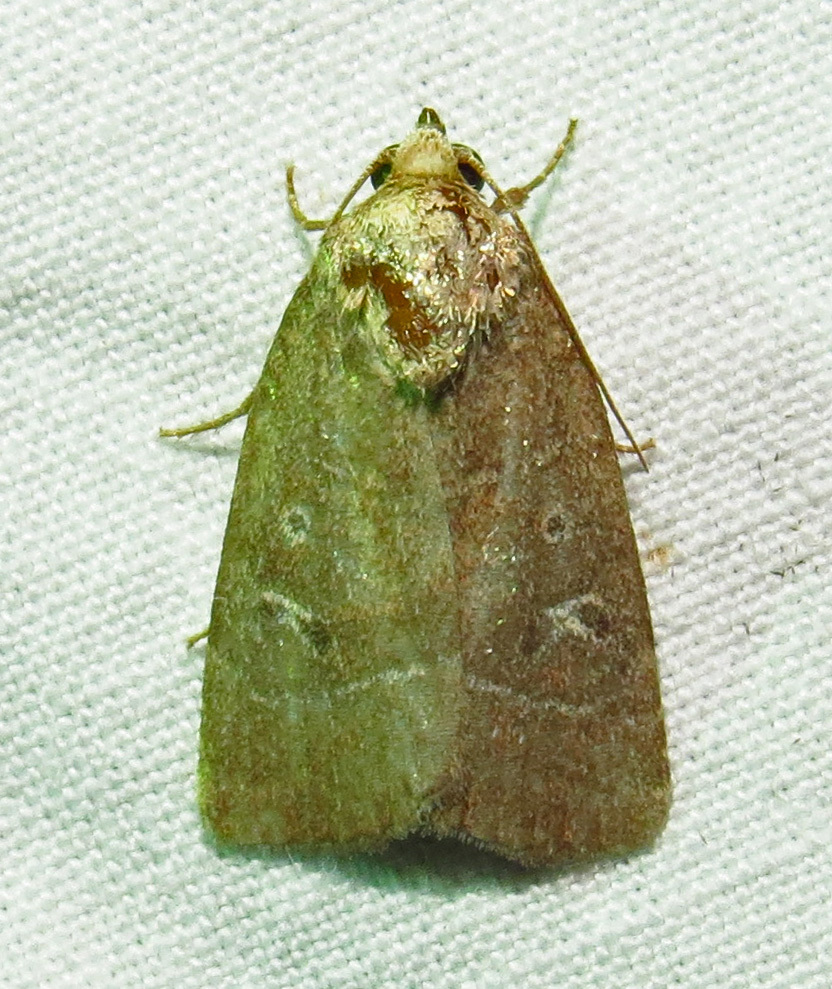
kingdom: Animalia
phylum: Arthropoda
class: Insecta
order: Lepidoptera
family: Noctuidae
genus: Elaphria
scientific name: Elaphria grata
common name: Grateful midget moth
